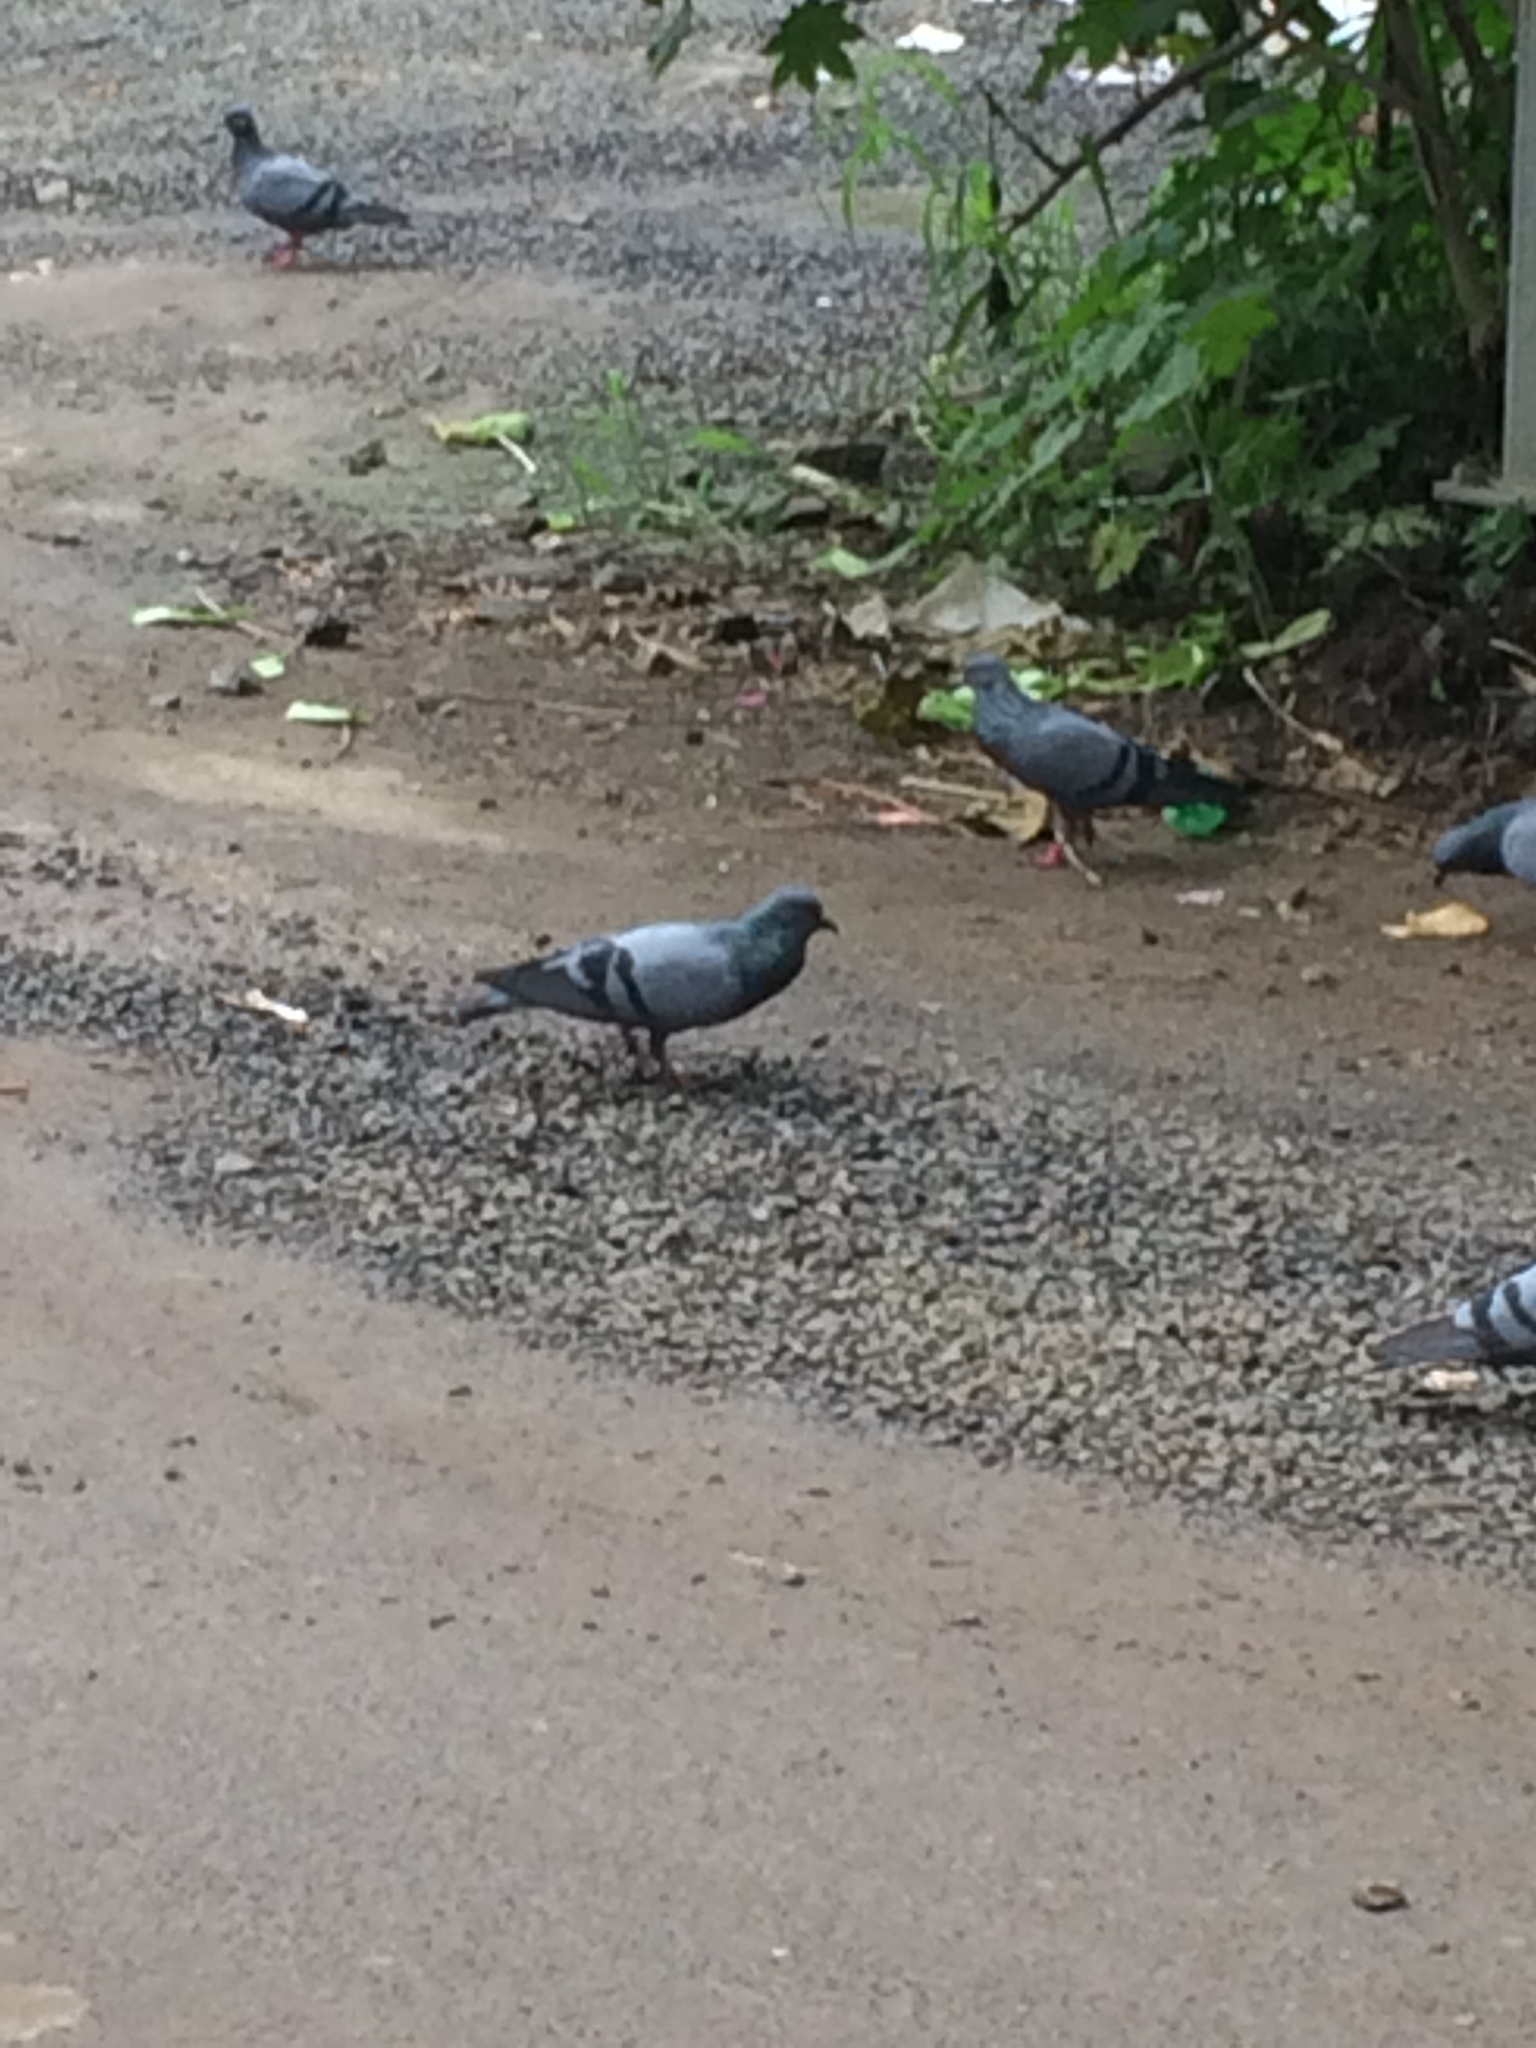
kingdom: Animalia
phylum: Chordata
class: Aves
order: Columbiformes
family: Columbidae
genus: Columba
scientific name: Columba livia
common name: Rock pigeon
